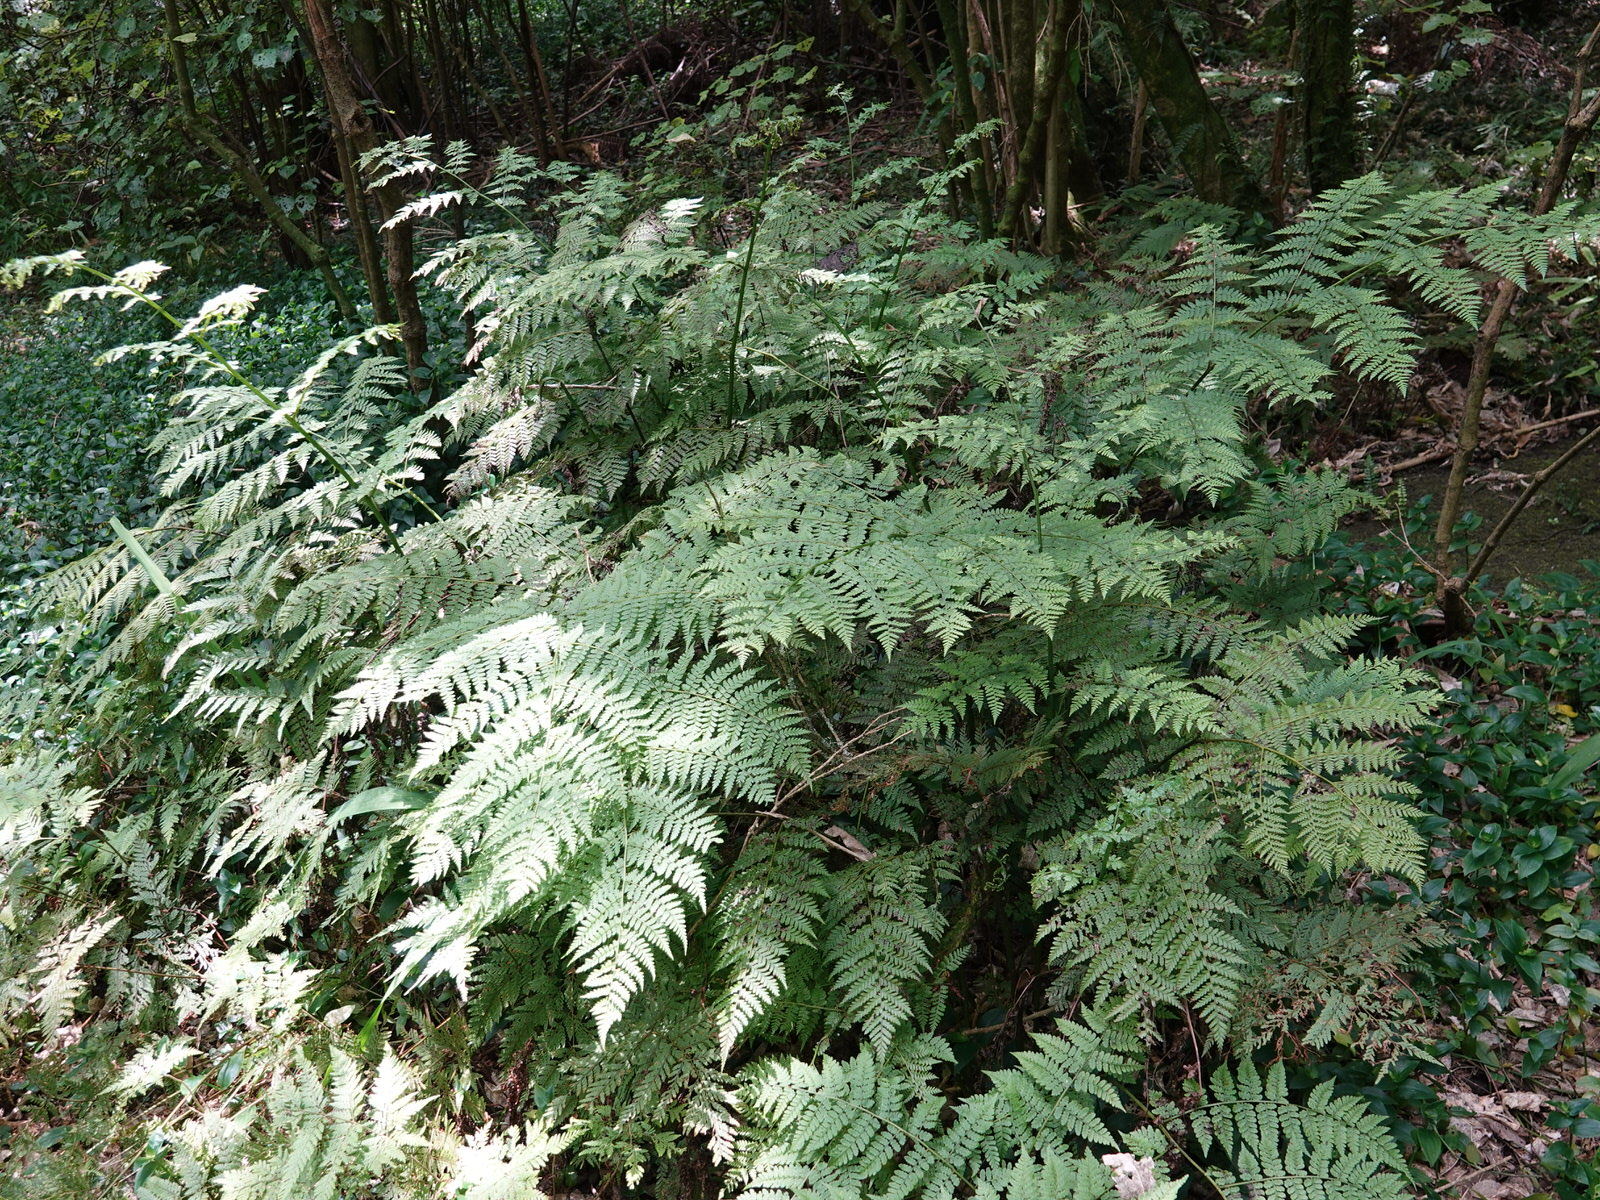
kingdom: Plantae
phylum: Tracheophyta
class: Polypodiopsida
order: Polypodiales
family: Athyriaceae
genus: Diplazium
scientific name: Diplazium australe
